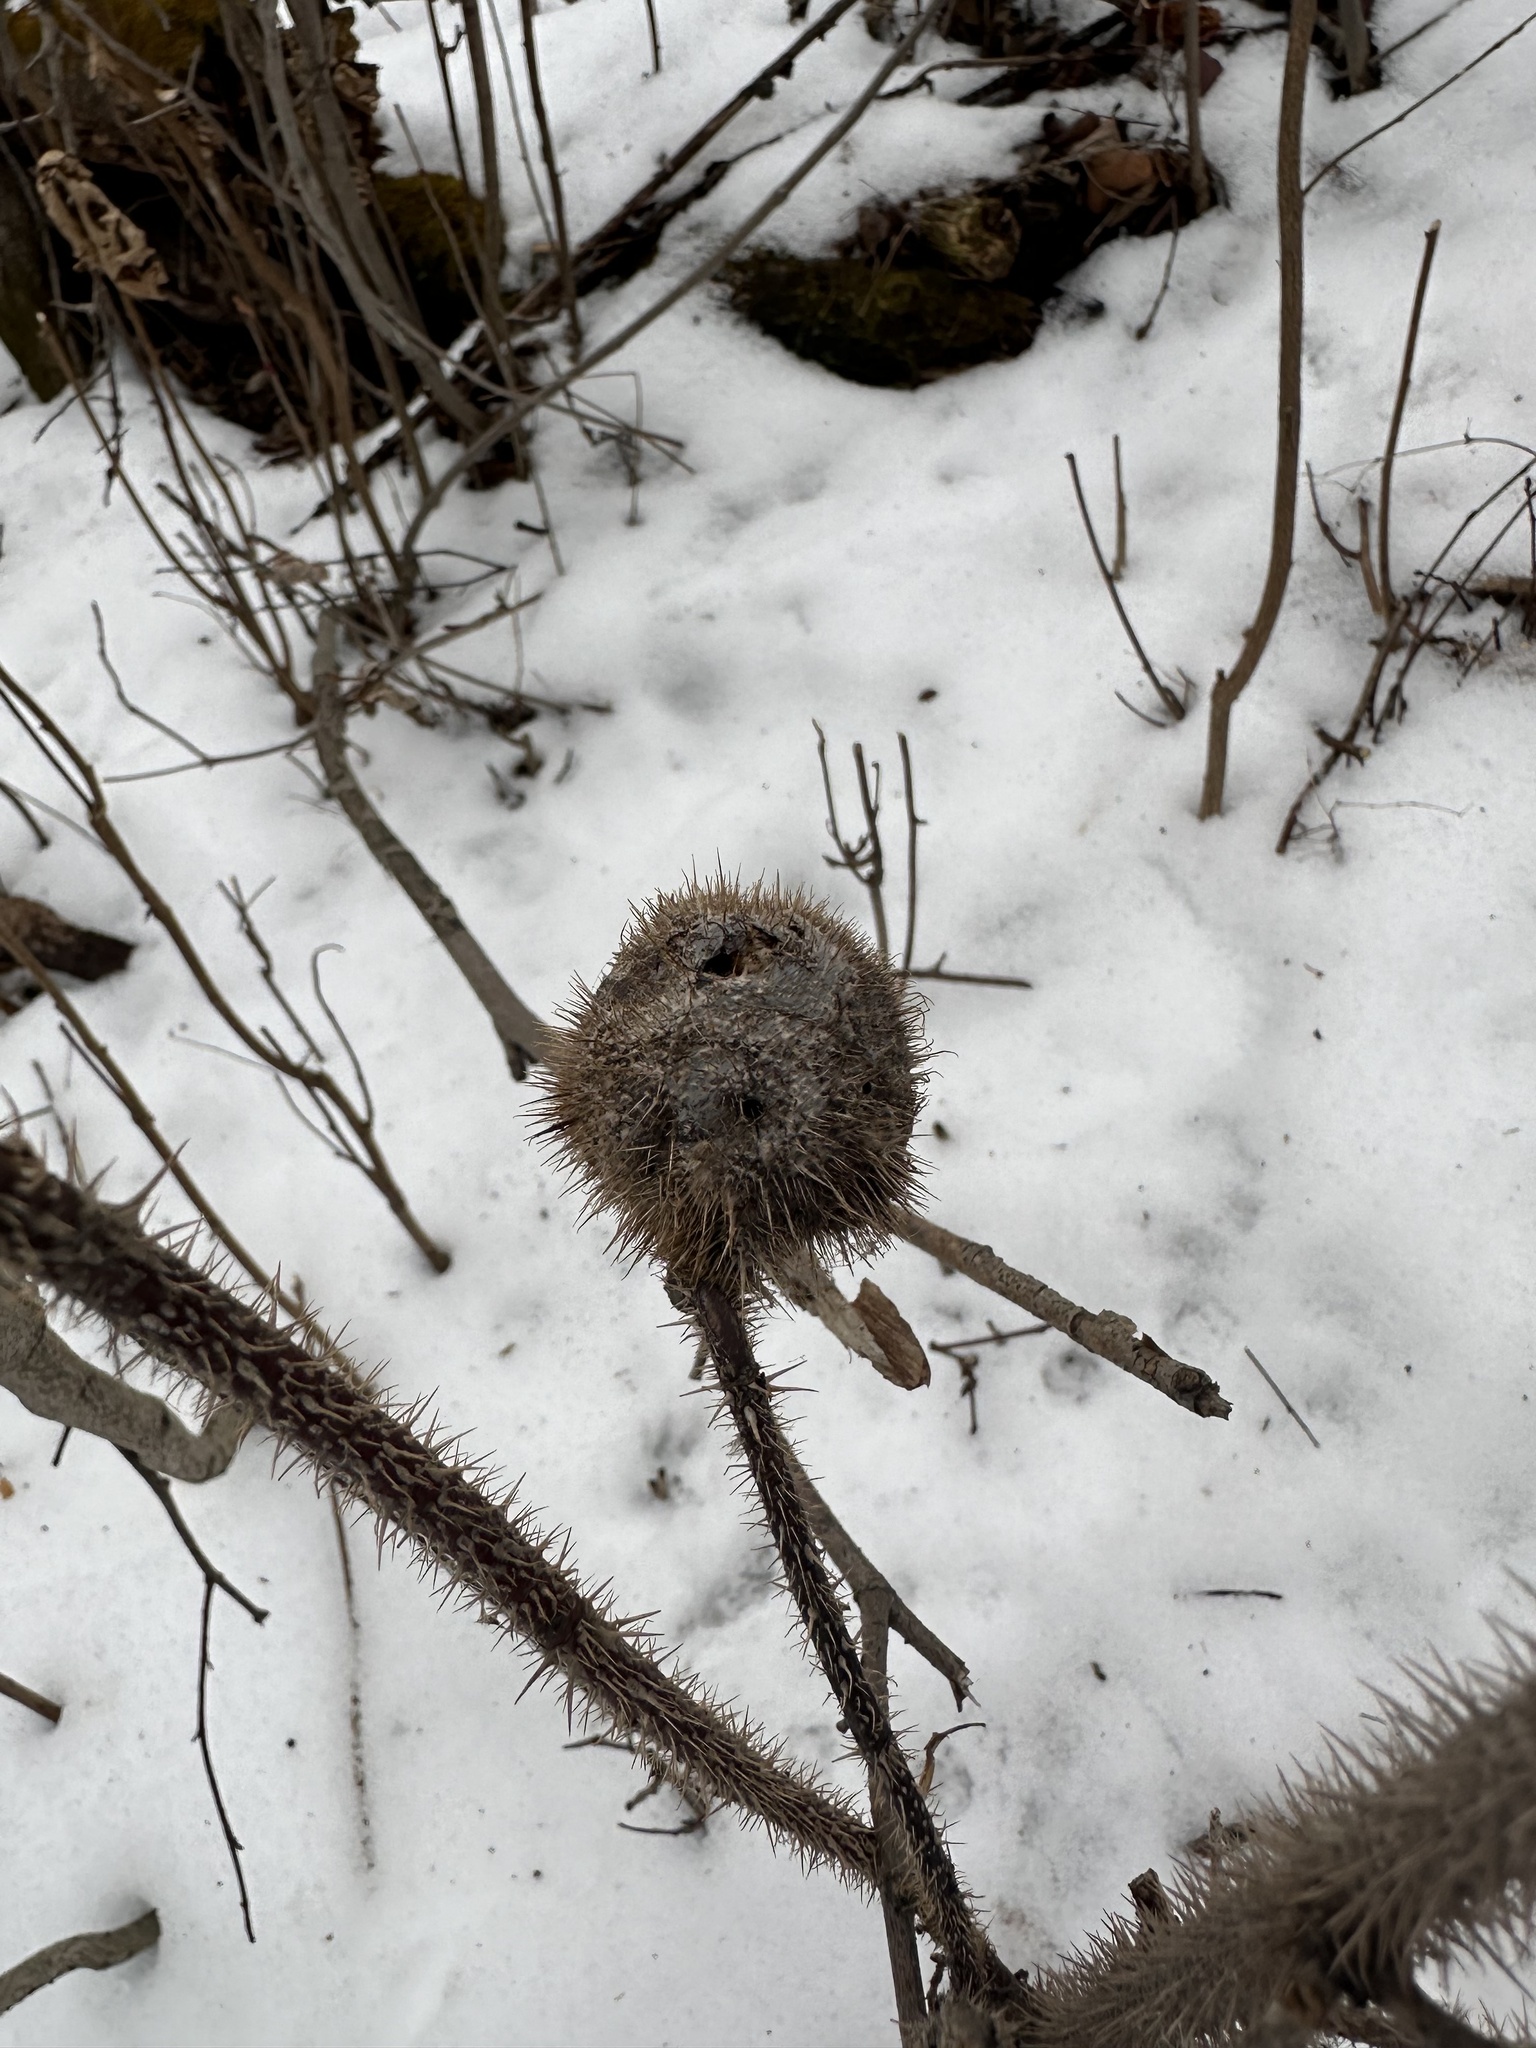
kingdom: Animalia
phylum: Arthropoda
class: Insecta
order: Hymenoptera
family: Cynipidae
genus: Diplolepis
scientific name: Diplolepis spinosa
